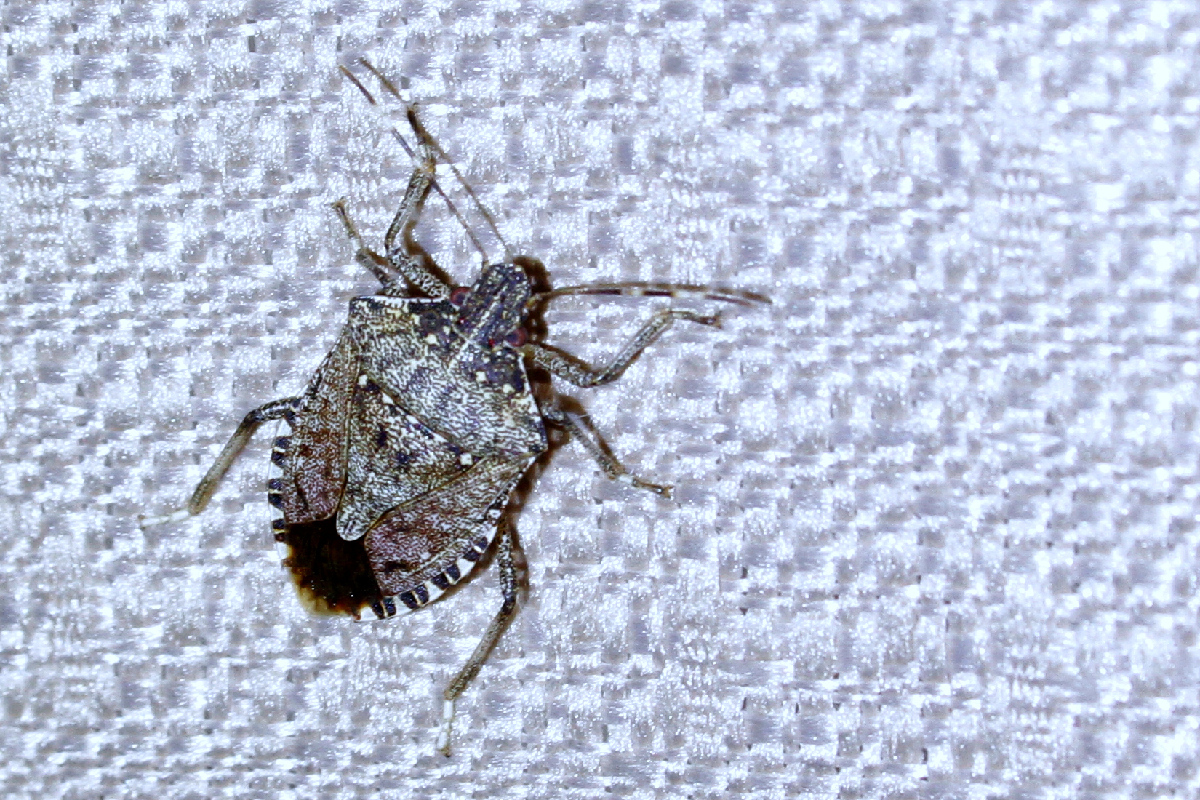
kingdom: Animalia
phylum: Arthropoda
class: Insecta
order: Hemiptera
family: Pentatomidae
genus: Halyomorpha
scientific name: Halyomorpha halys
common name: Brown marmorated stink bug
